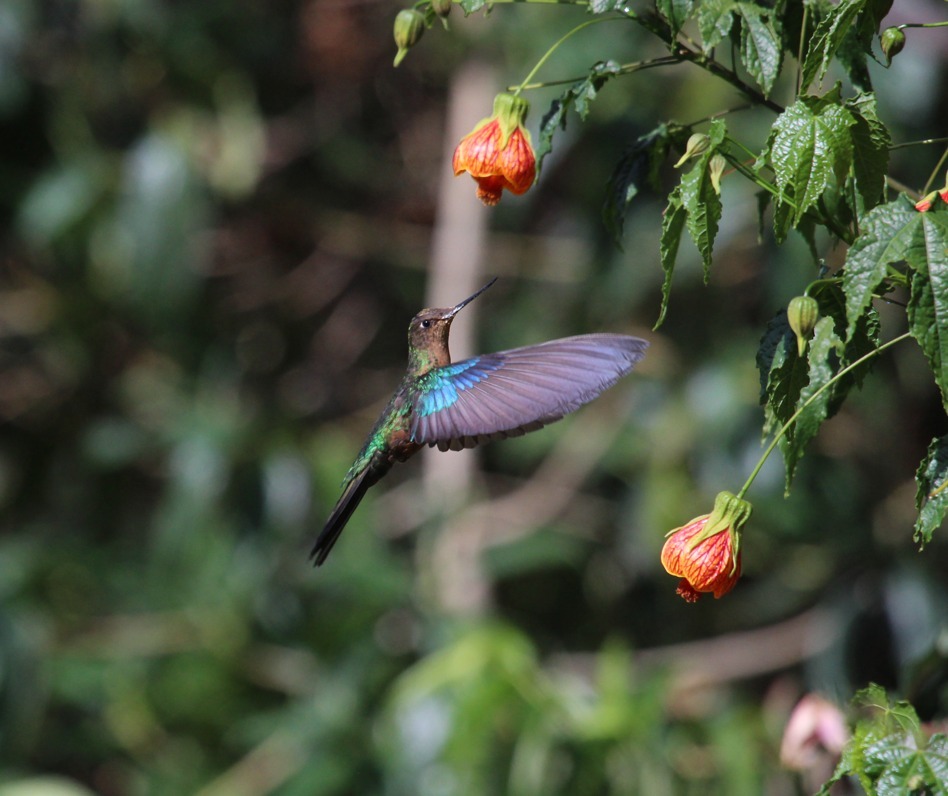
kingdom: Animalia
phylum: Chordata
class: Aves
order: Apodiformes
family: Trochilidae
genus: Pterophanes
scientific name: Pterophanes cyanopterus
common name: Great sapphirewing
